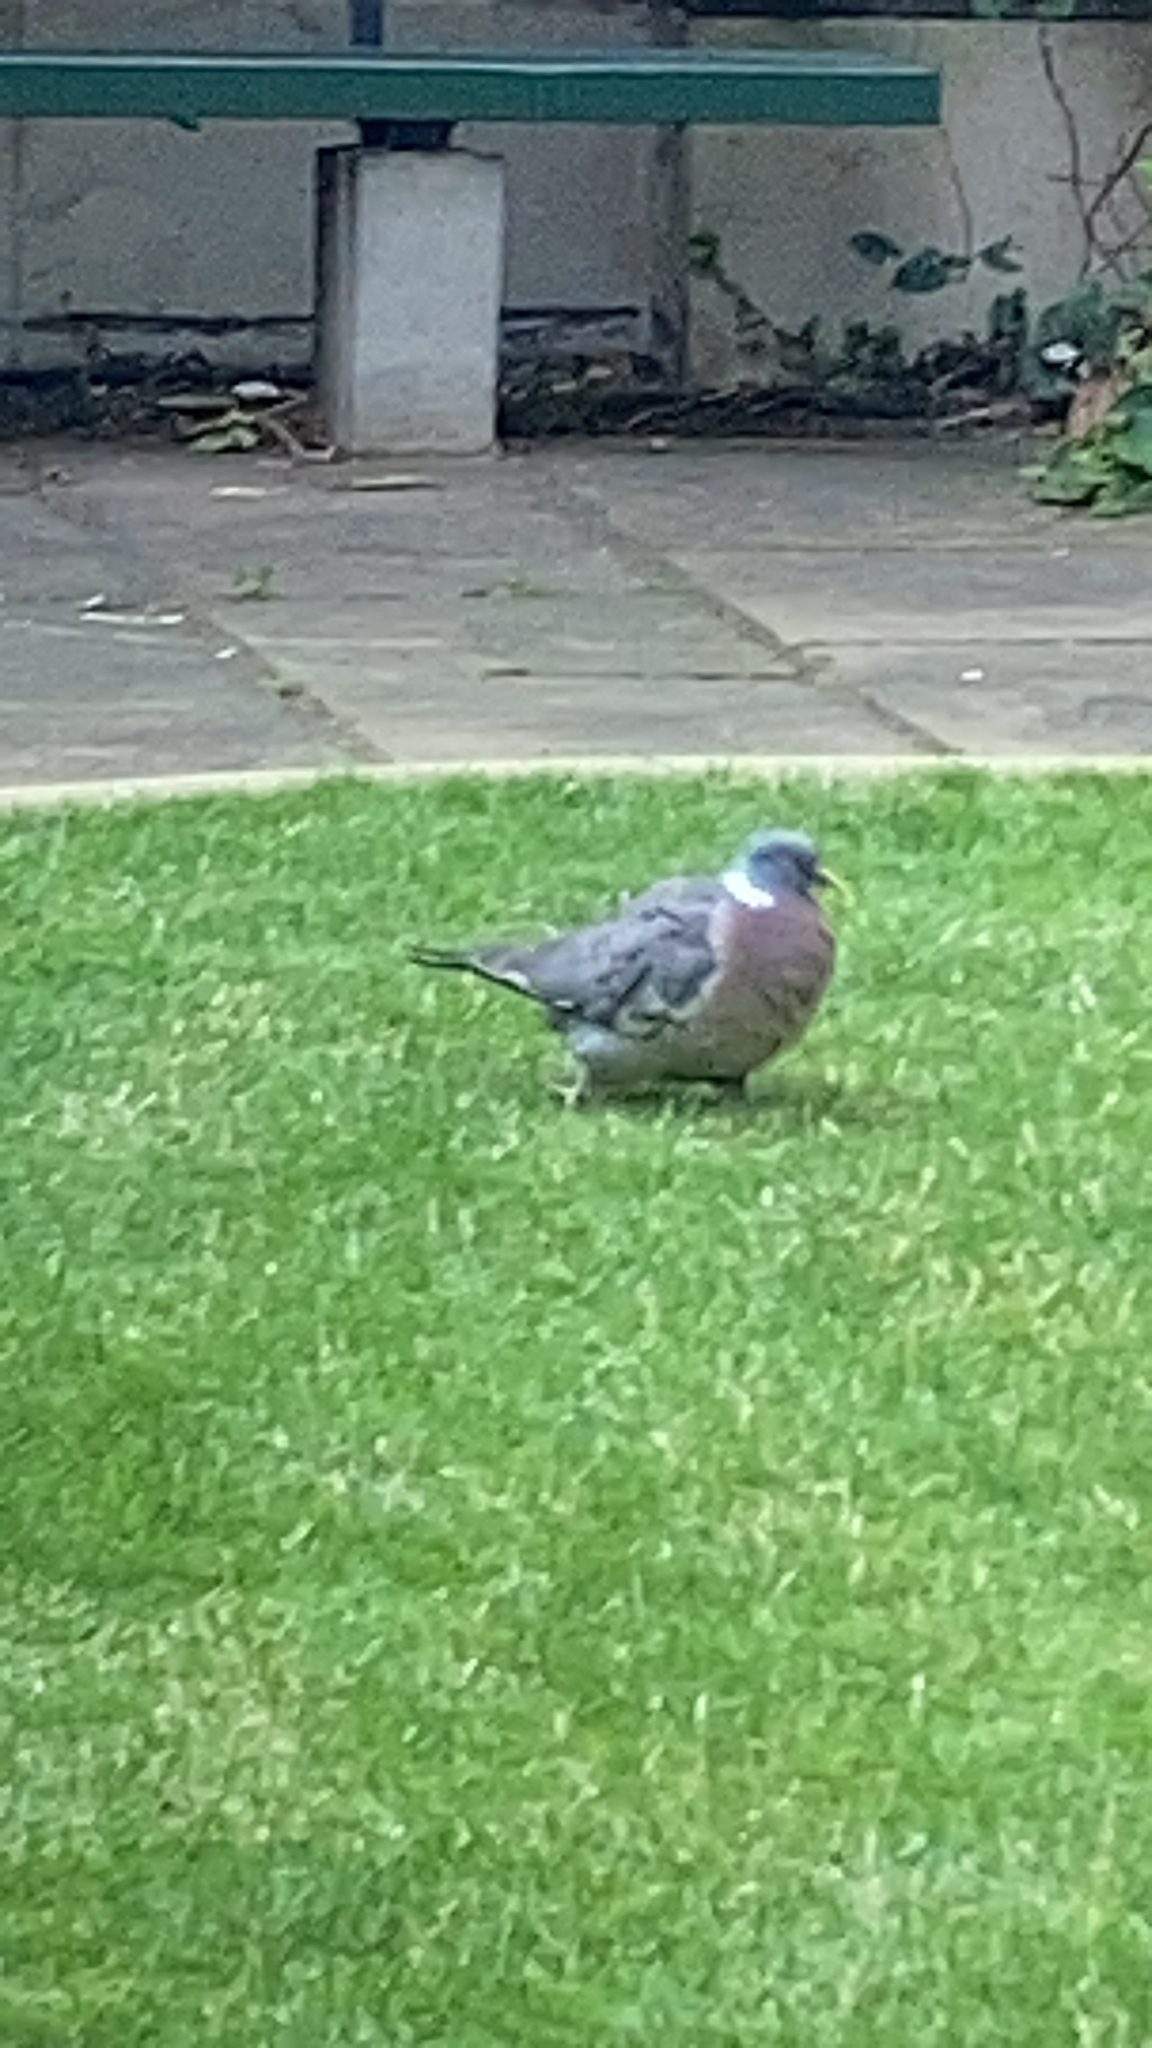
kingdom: Animalia
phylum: Chordata
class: Aves
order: Columbiformes
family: Columbidae
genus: Columba
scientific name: Columba palumbus
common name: Common wood pigeon
